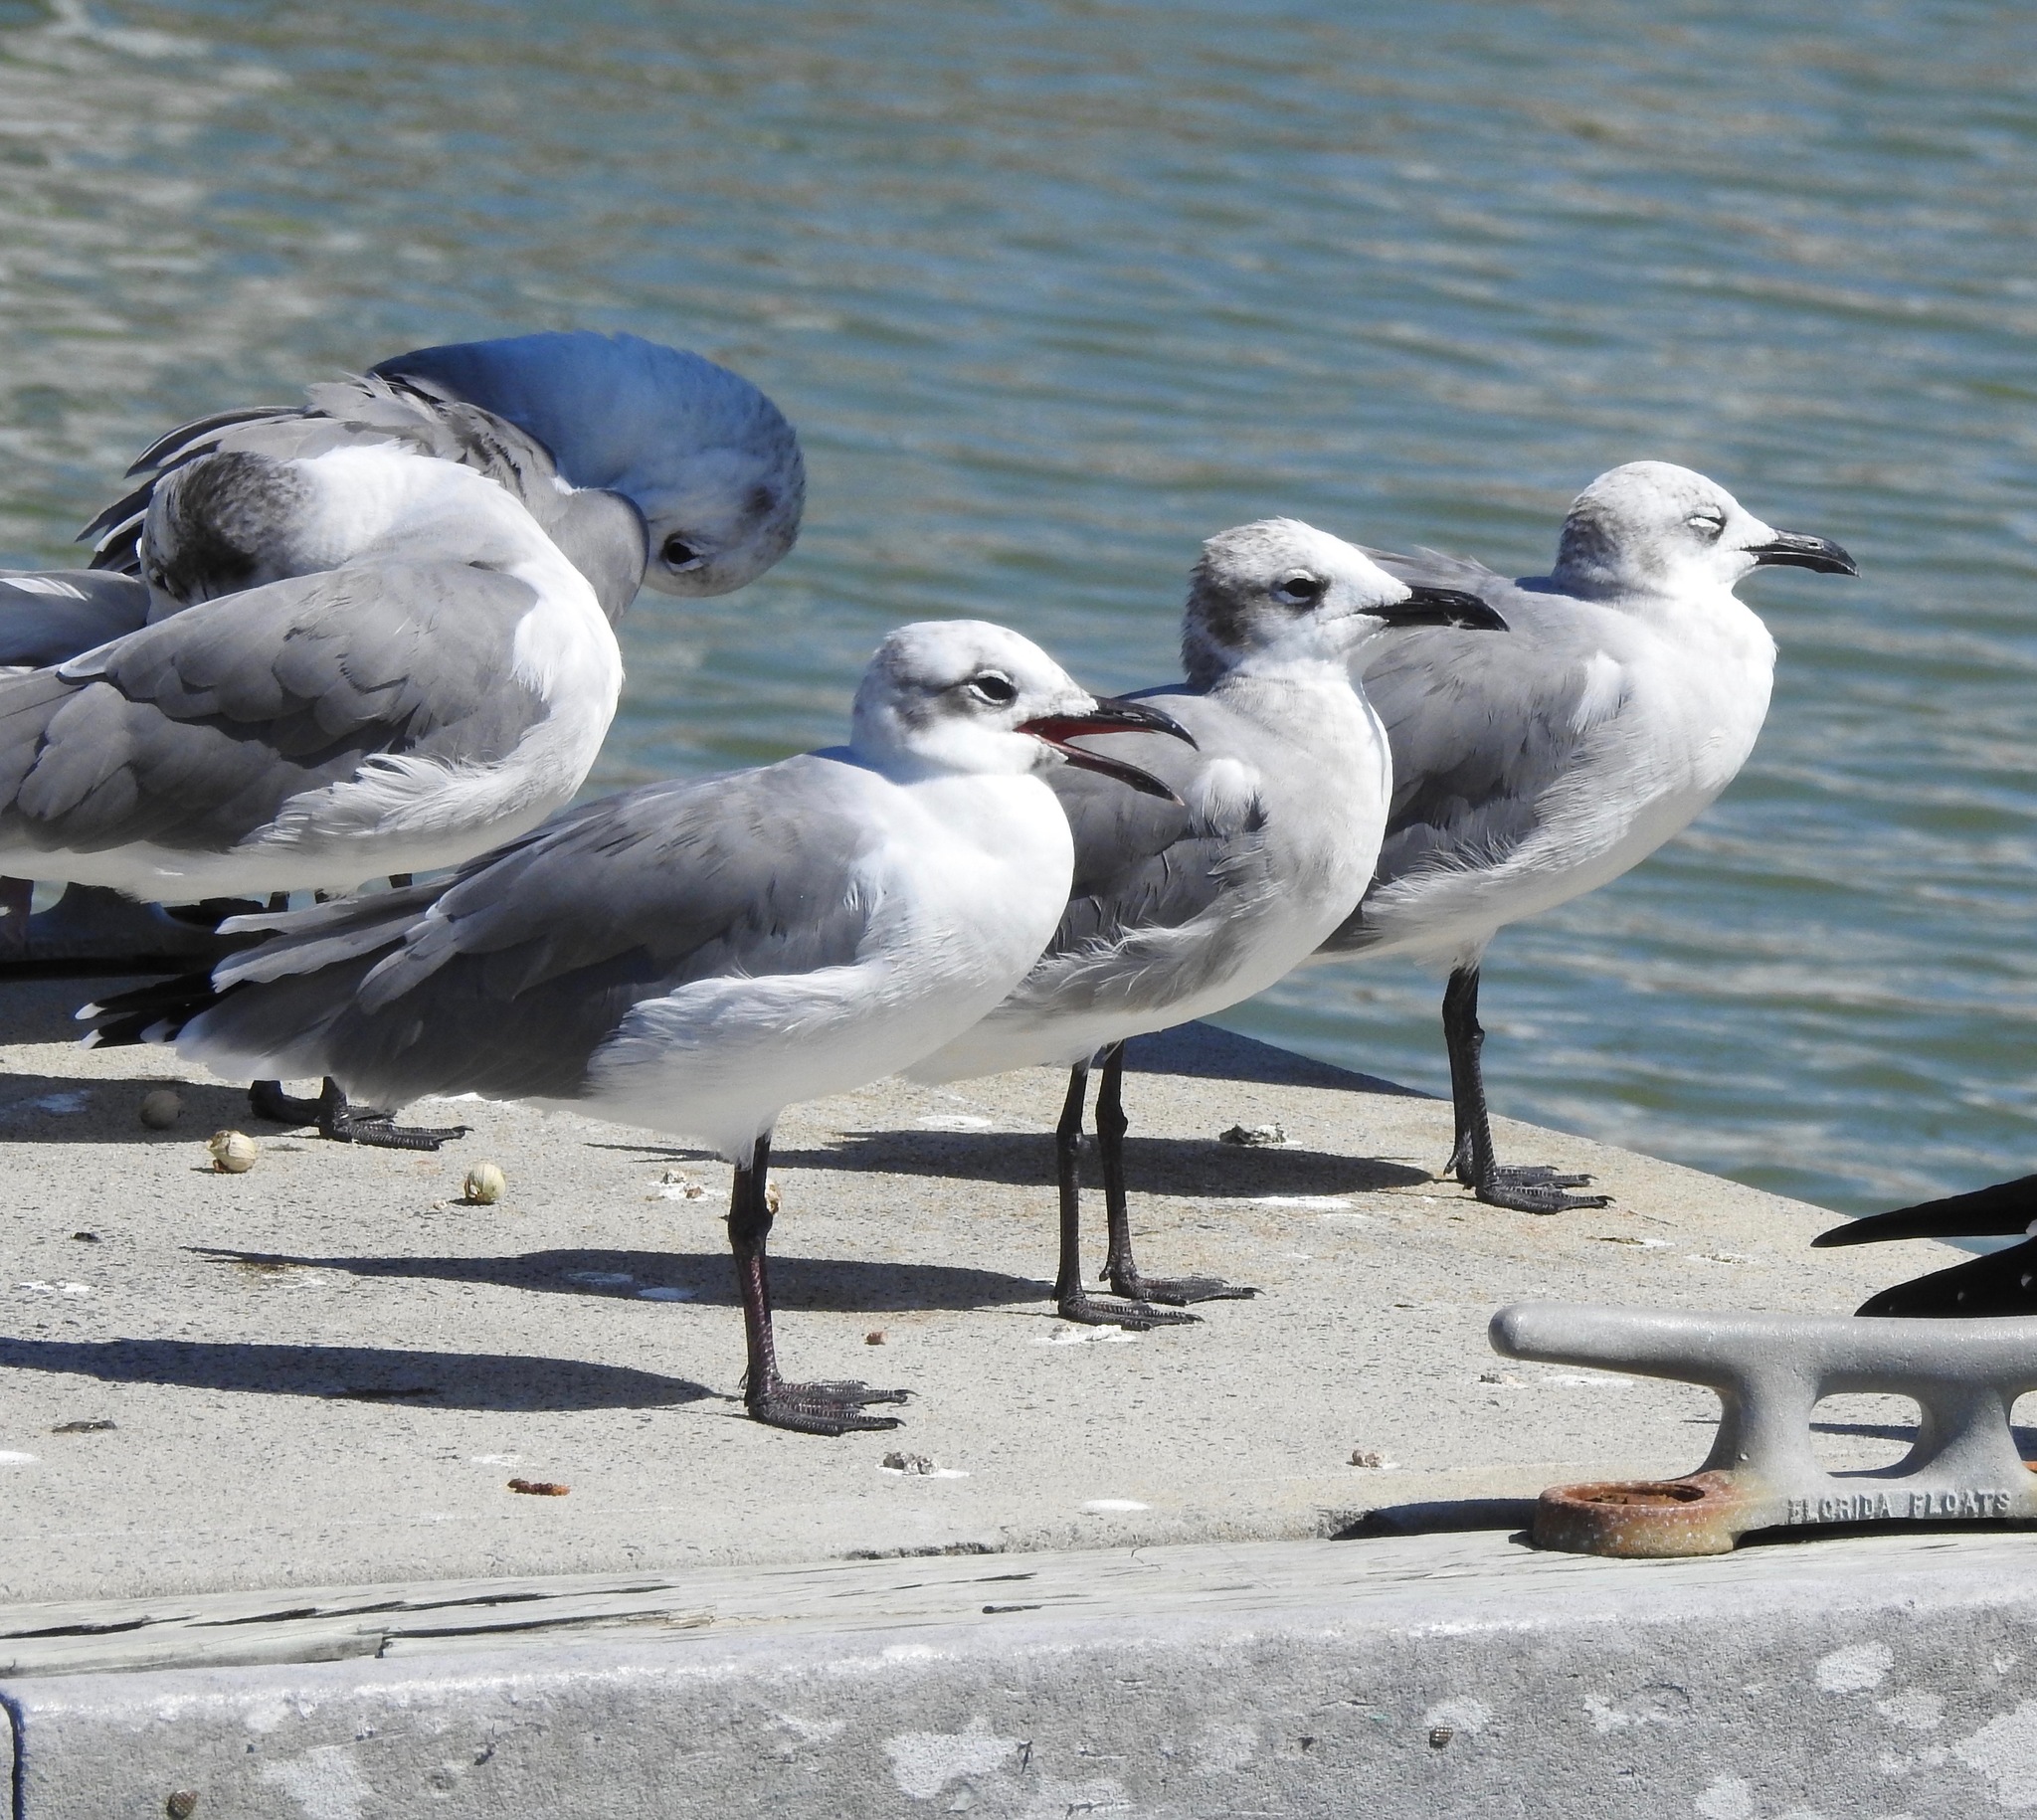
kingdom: Animalia
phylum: Chordata
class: Aves
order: Charadriiformes
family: Laridae
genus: Leucophaeus
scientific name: Leucophaeus atricilla
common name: Laughing gull
